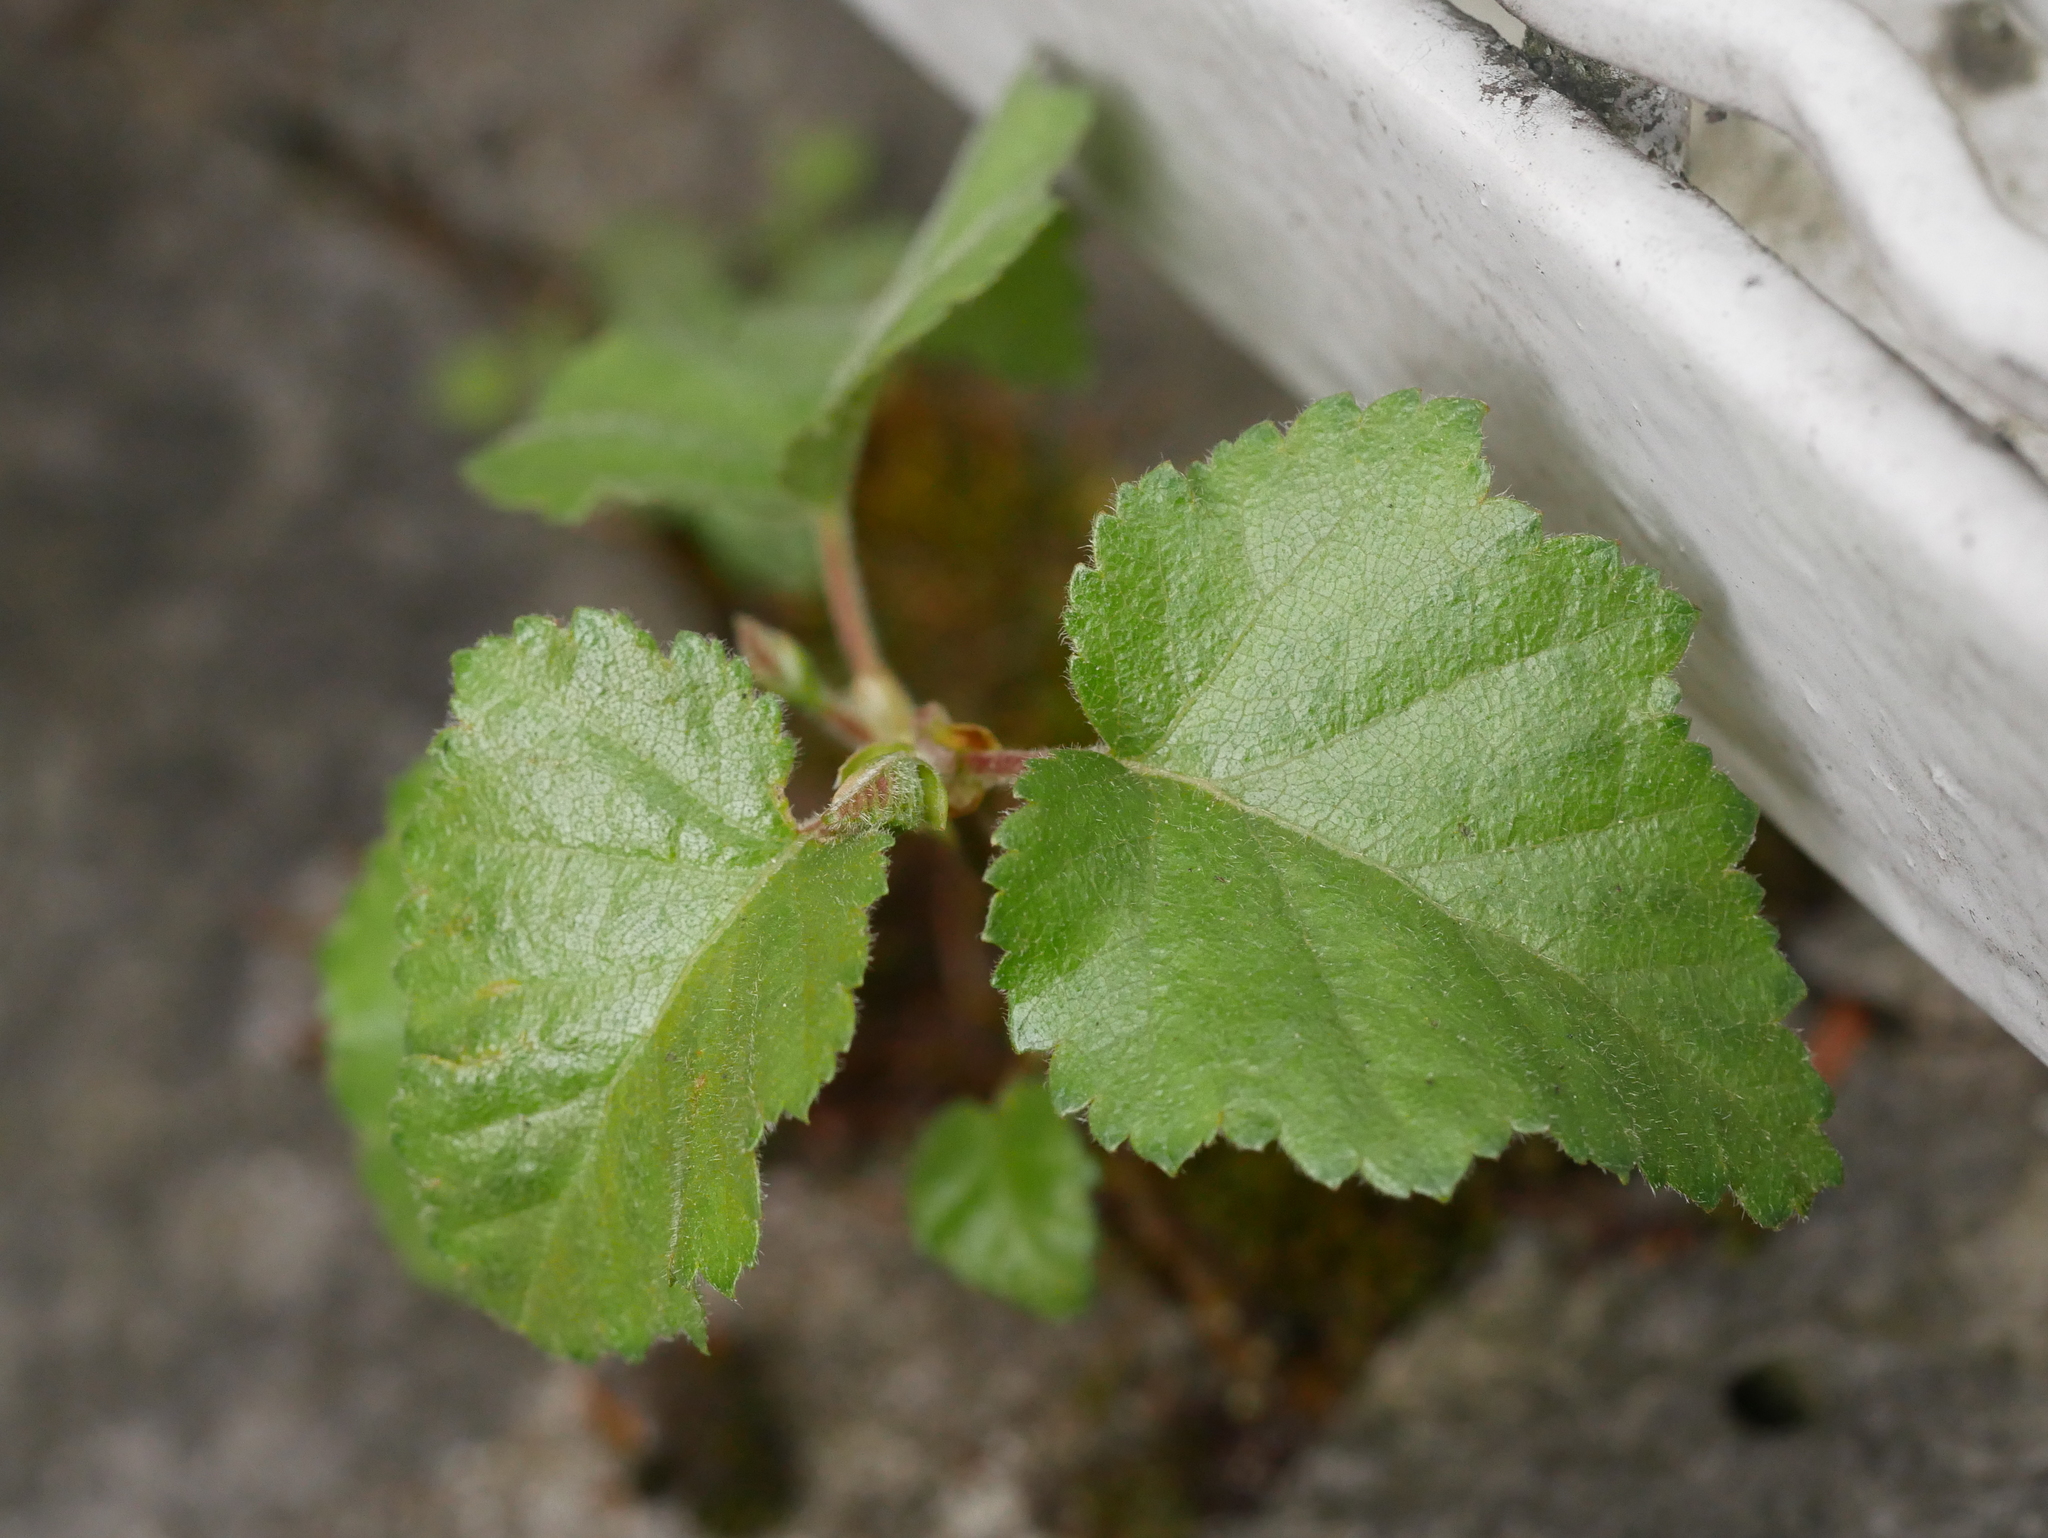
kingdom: Plantae
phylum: Tracheophyta
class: Magnoliopsida
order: Fagales
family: Betulaceae
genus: Betula
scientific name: Betula pendula
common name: Silver birch
